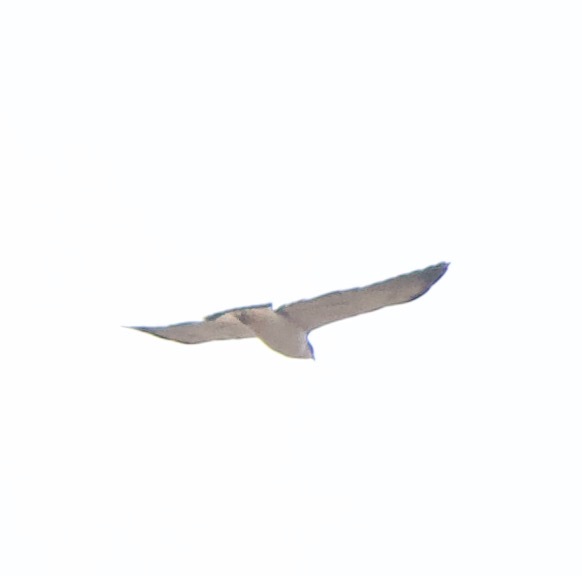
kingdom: Animalia
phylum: Chordata
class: Aves
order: Accipitriformes
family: Accipitridae
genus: Buteo
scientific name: Buteo polyosoma
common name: Variable hawk
